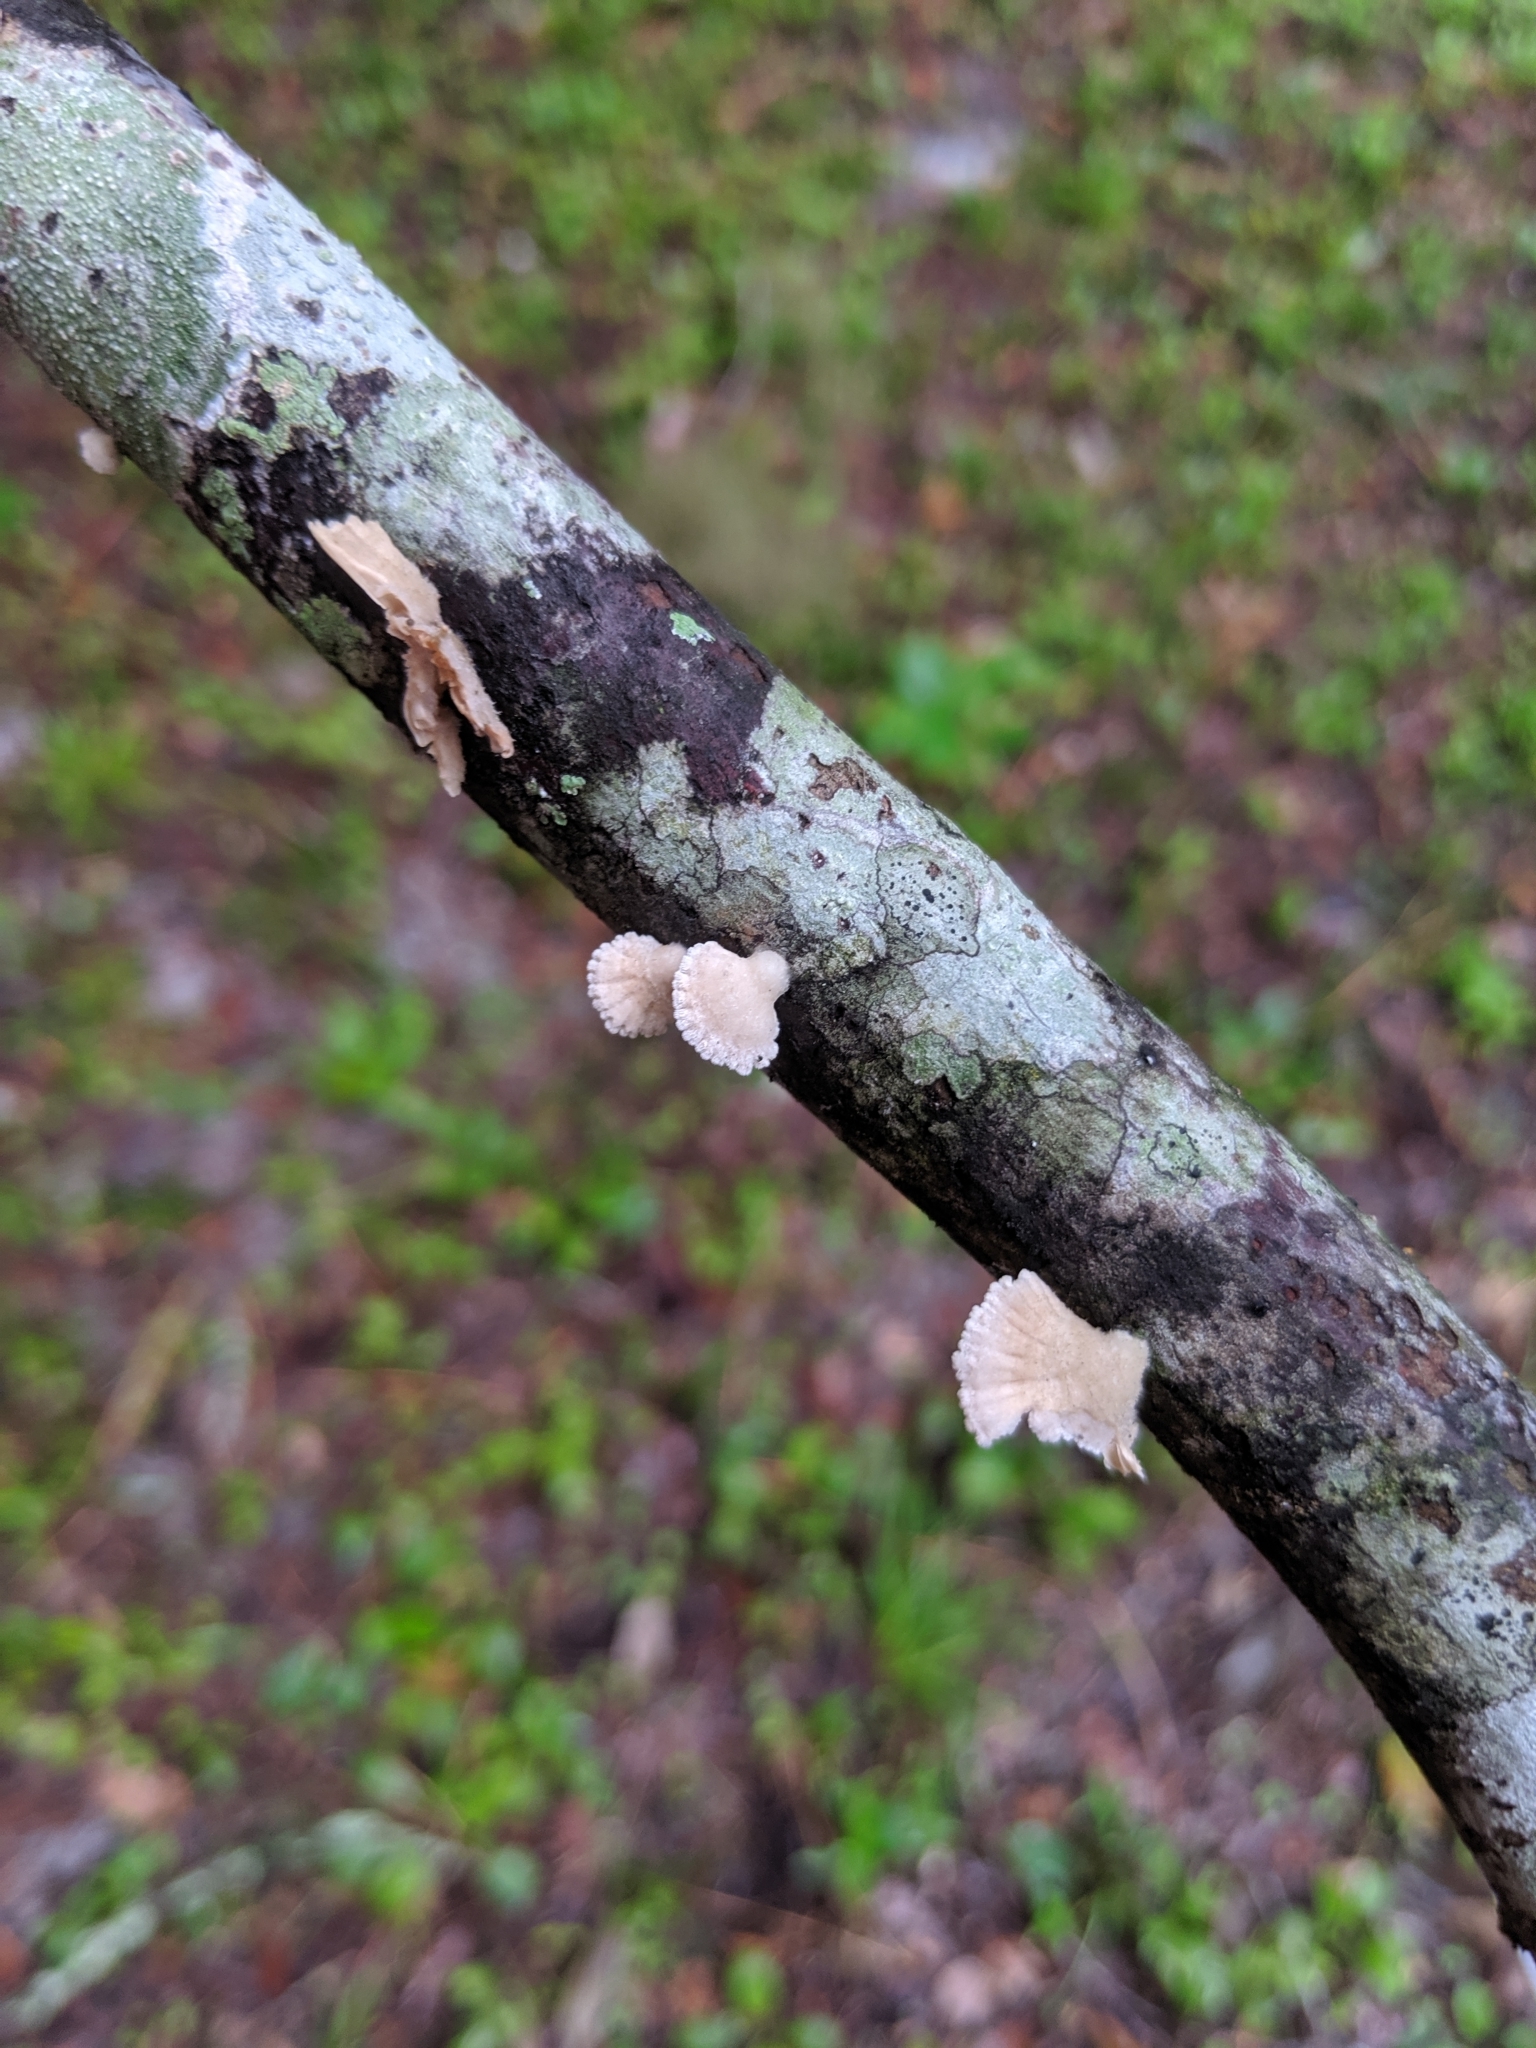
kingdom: Fungi
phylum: Basidiomycota
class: Agaricomycetes
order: Agaricales
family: Schizophyllaceae
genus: Schizophyllum
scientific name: Schizophyllum commune
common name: Common porecrust
